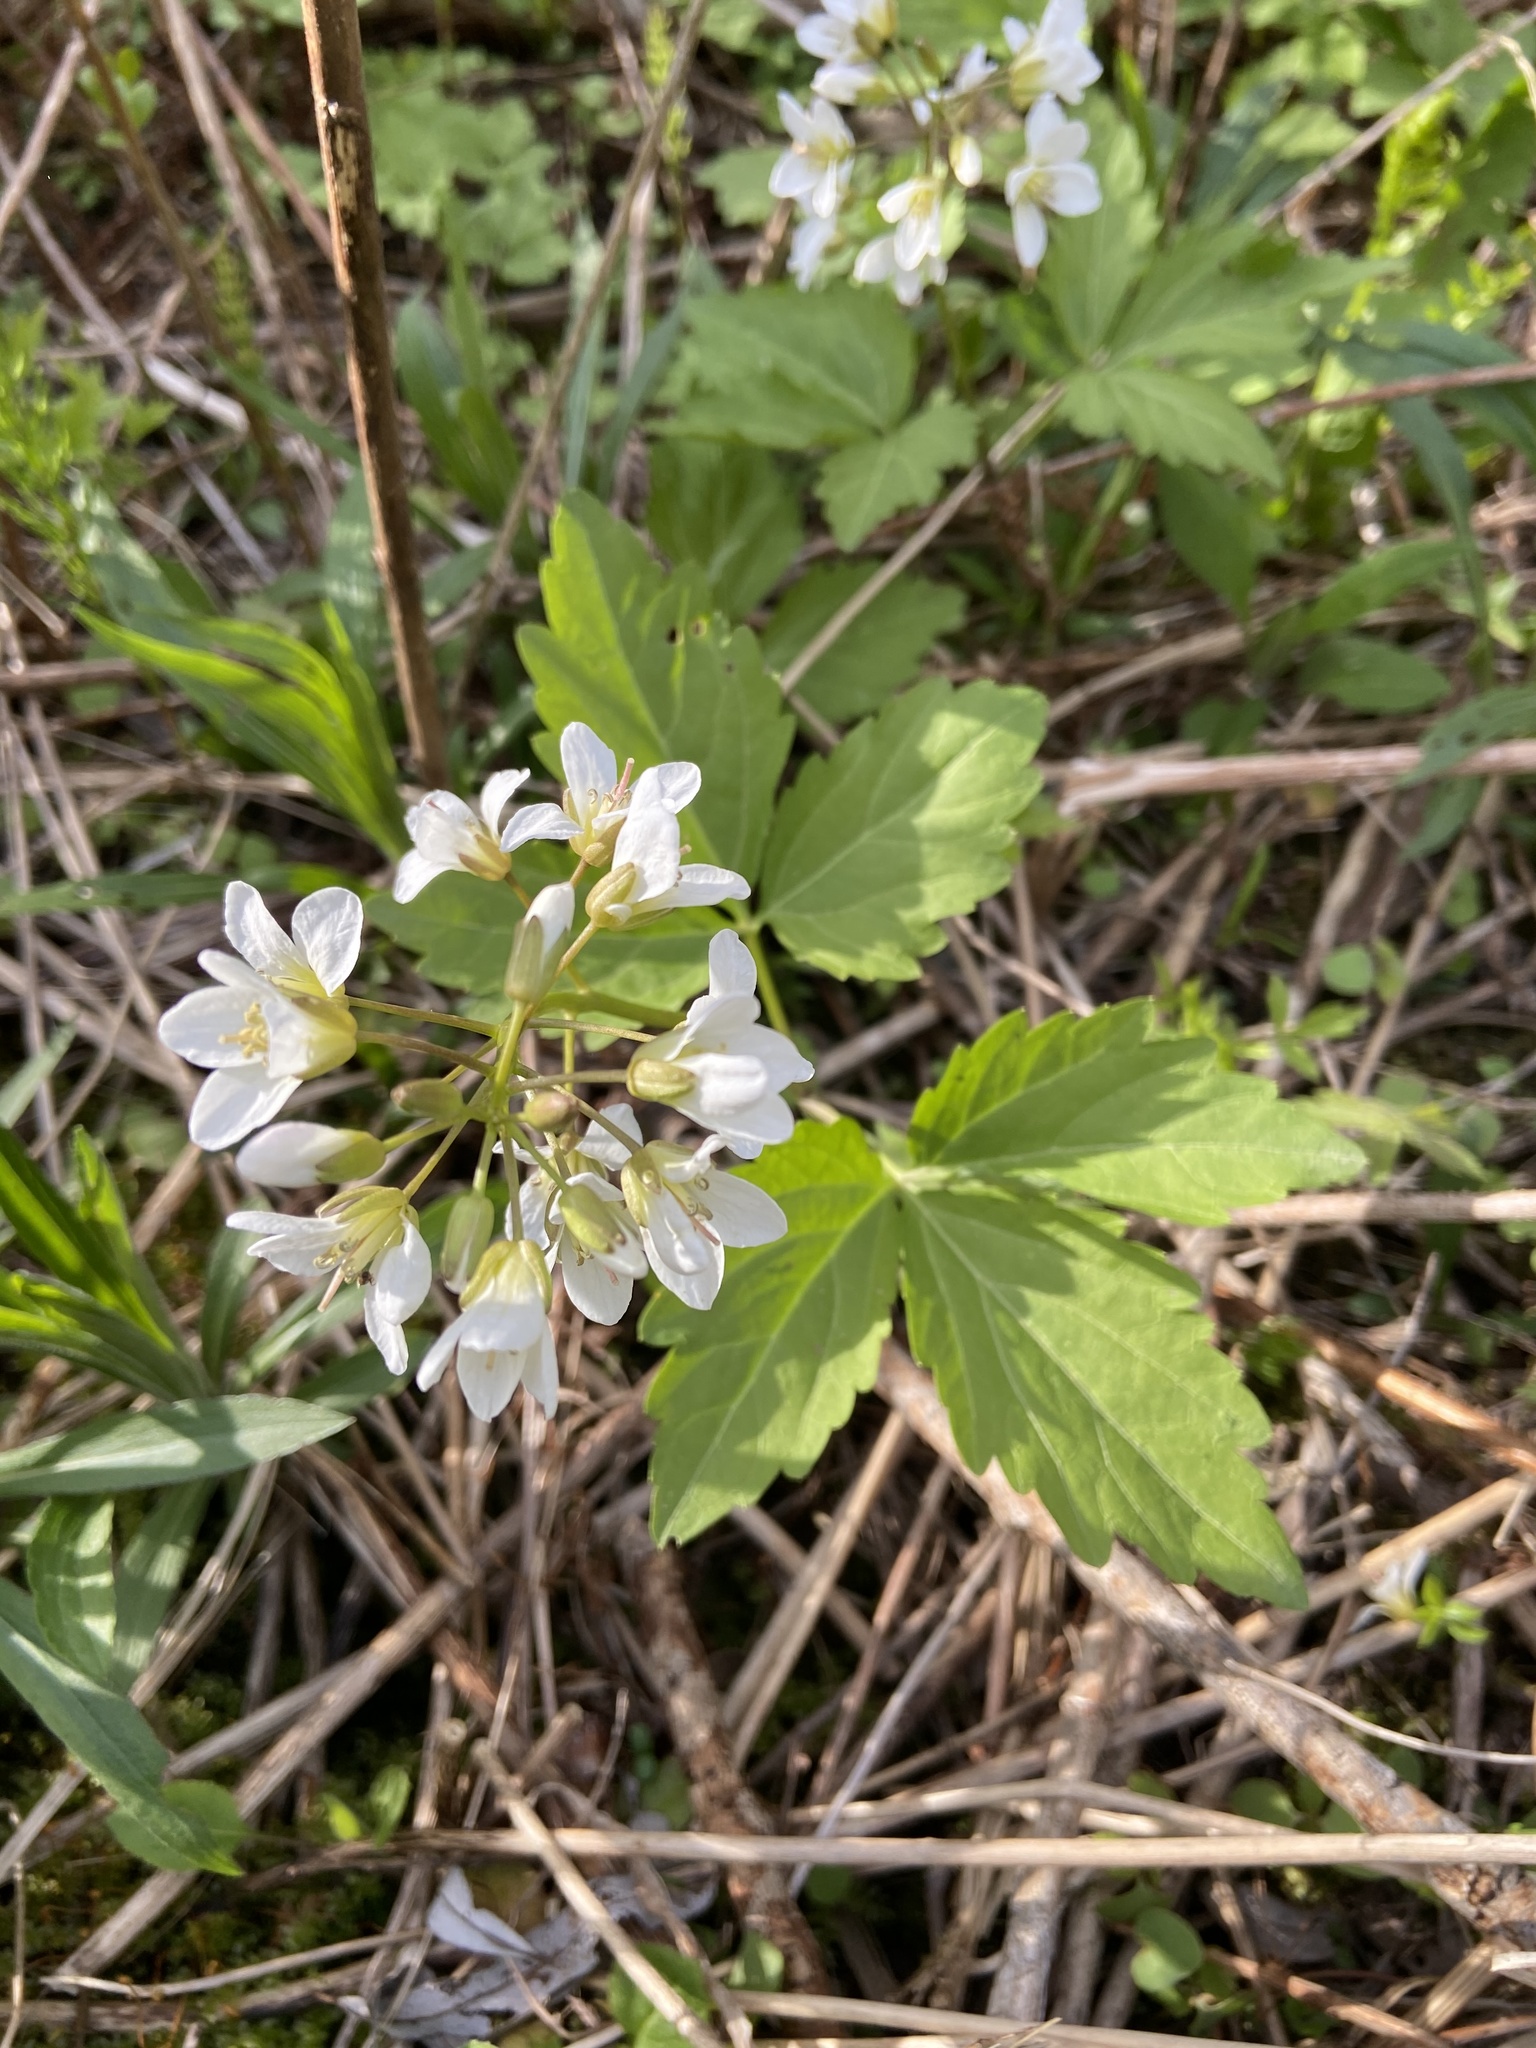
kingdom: Plantae
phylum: Tracheophyta
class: Magnoliopsida
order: Brassicales
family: Brassicaceae
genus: Cardamine
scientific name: Cardamine diphylla
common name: Broad-leaved toothwort
